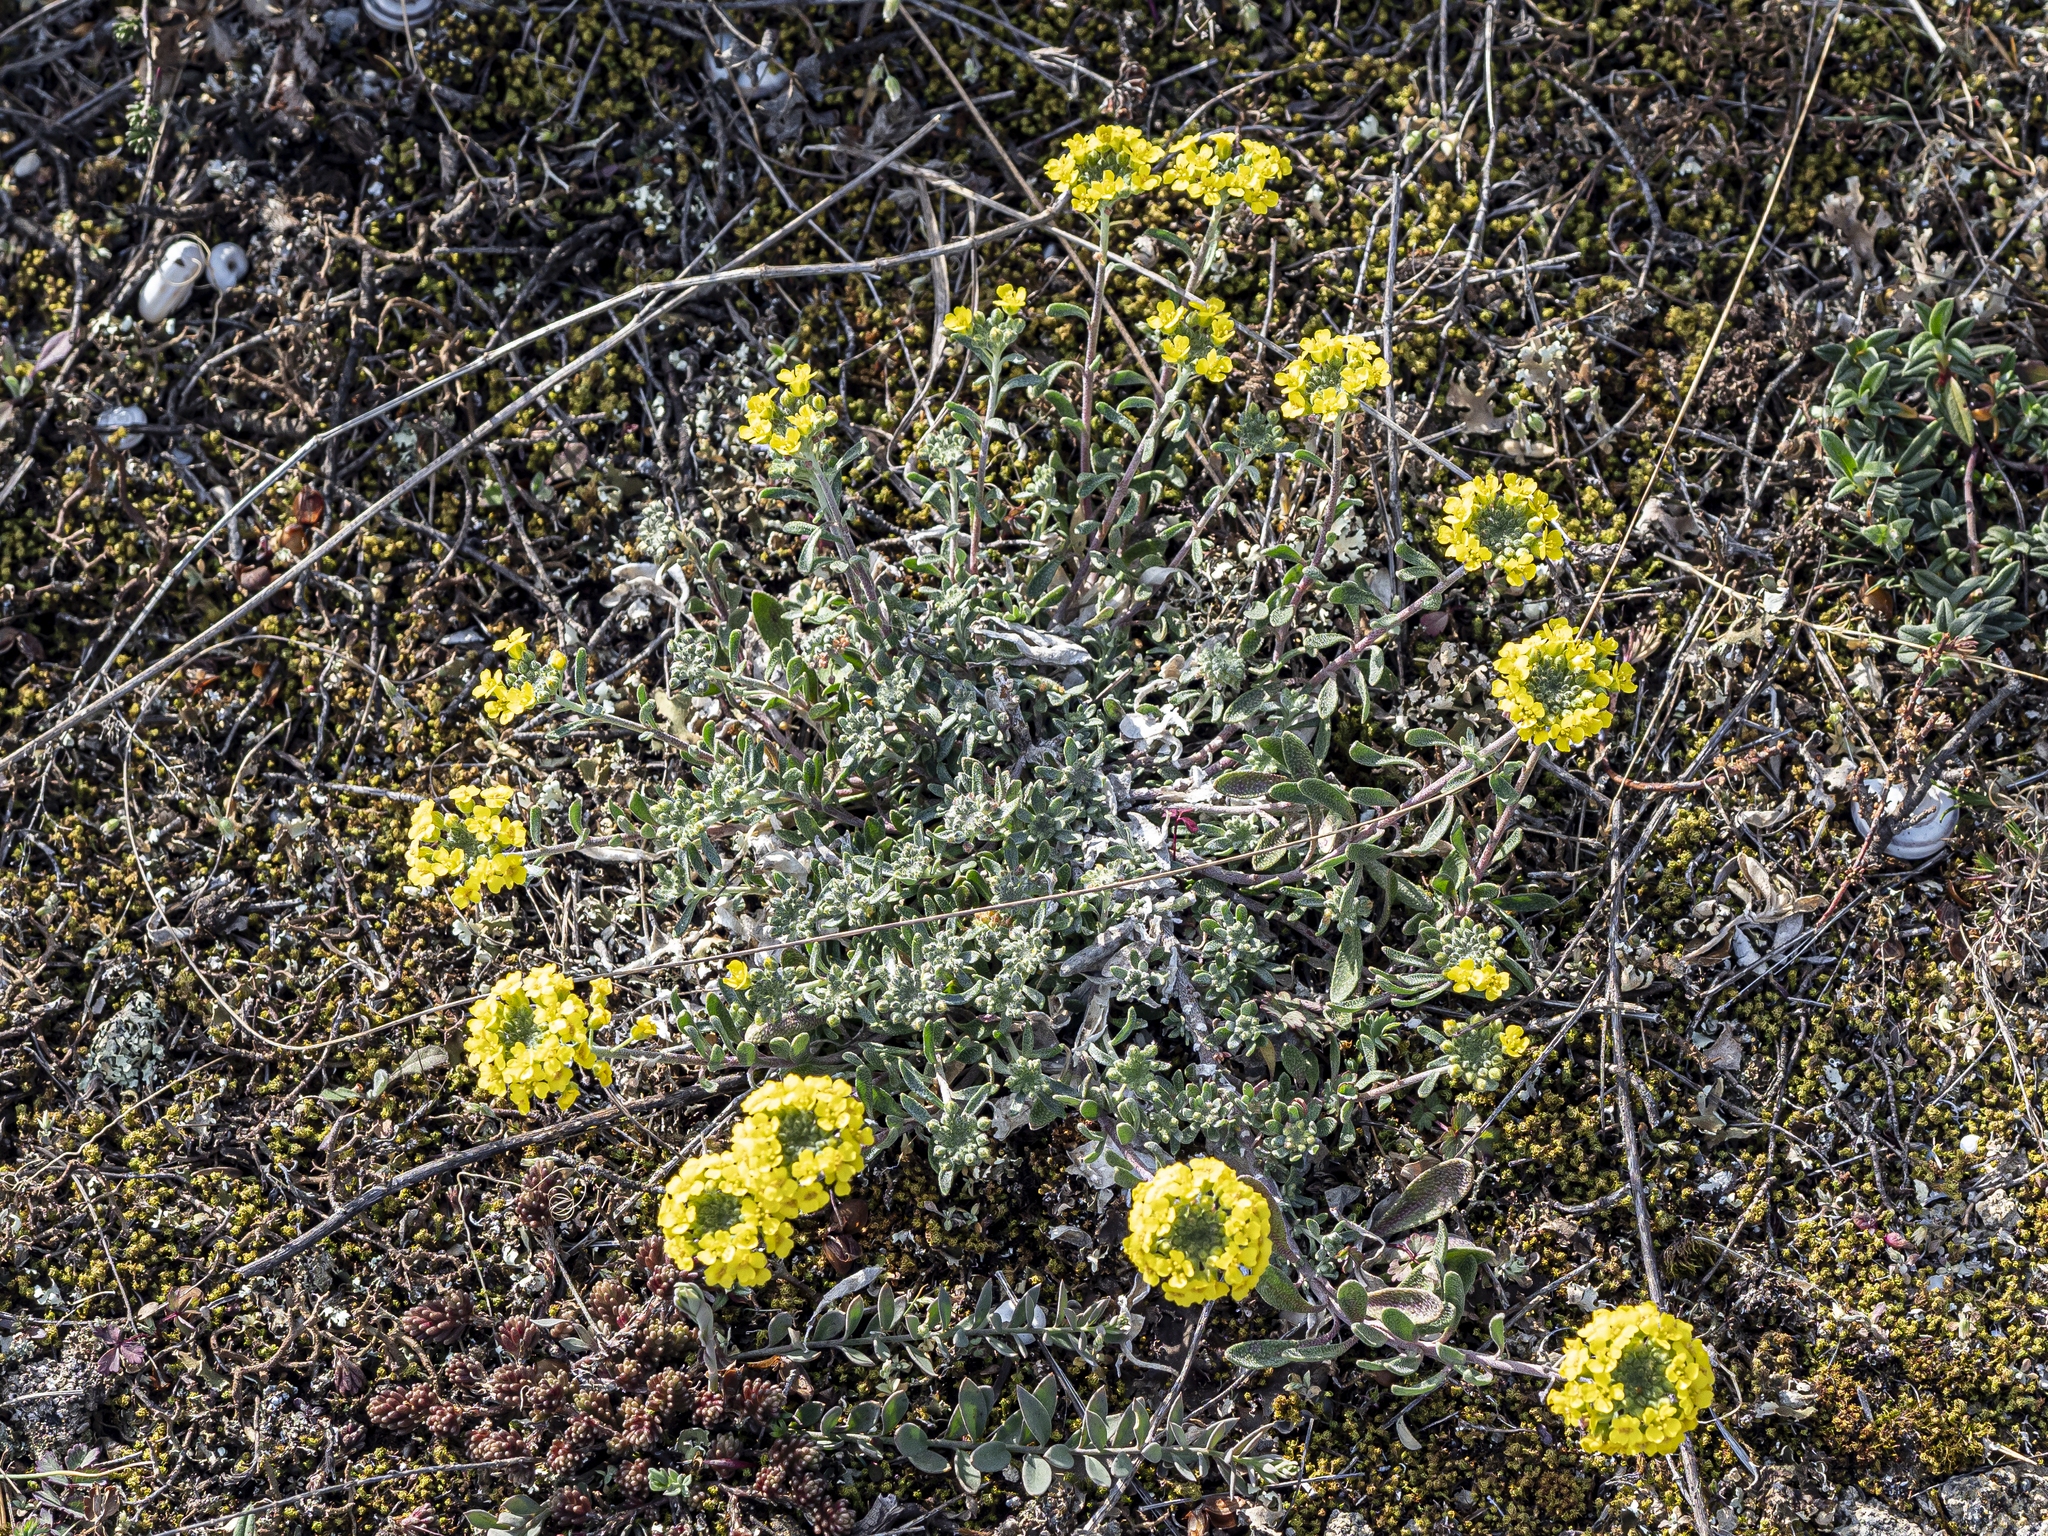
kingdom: Plantae
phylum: Tracheophyta
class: Magnoliopsida
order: Brassicales
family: Brassicaceae
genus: Alyssum
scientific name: Alyssum gmelinii
